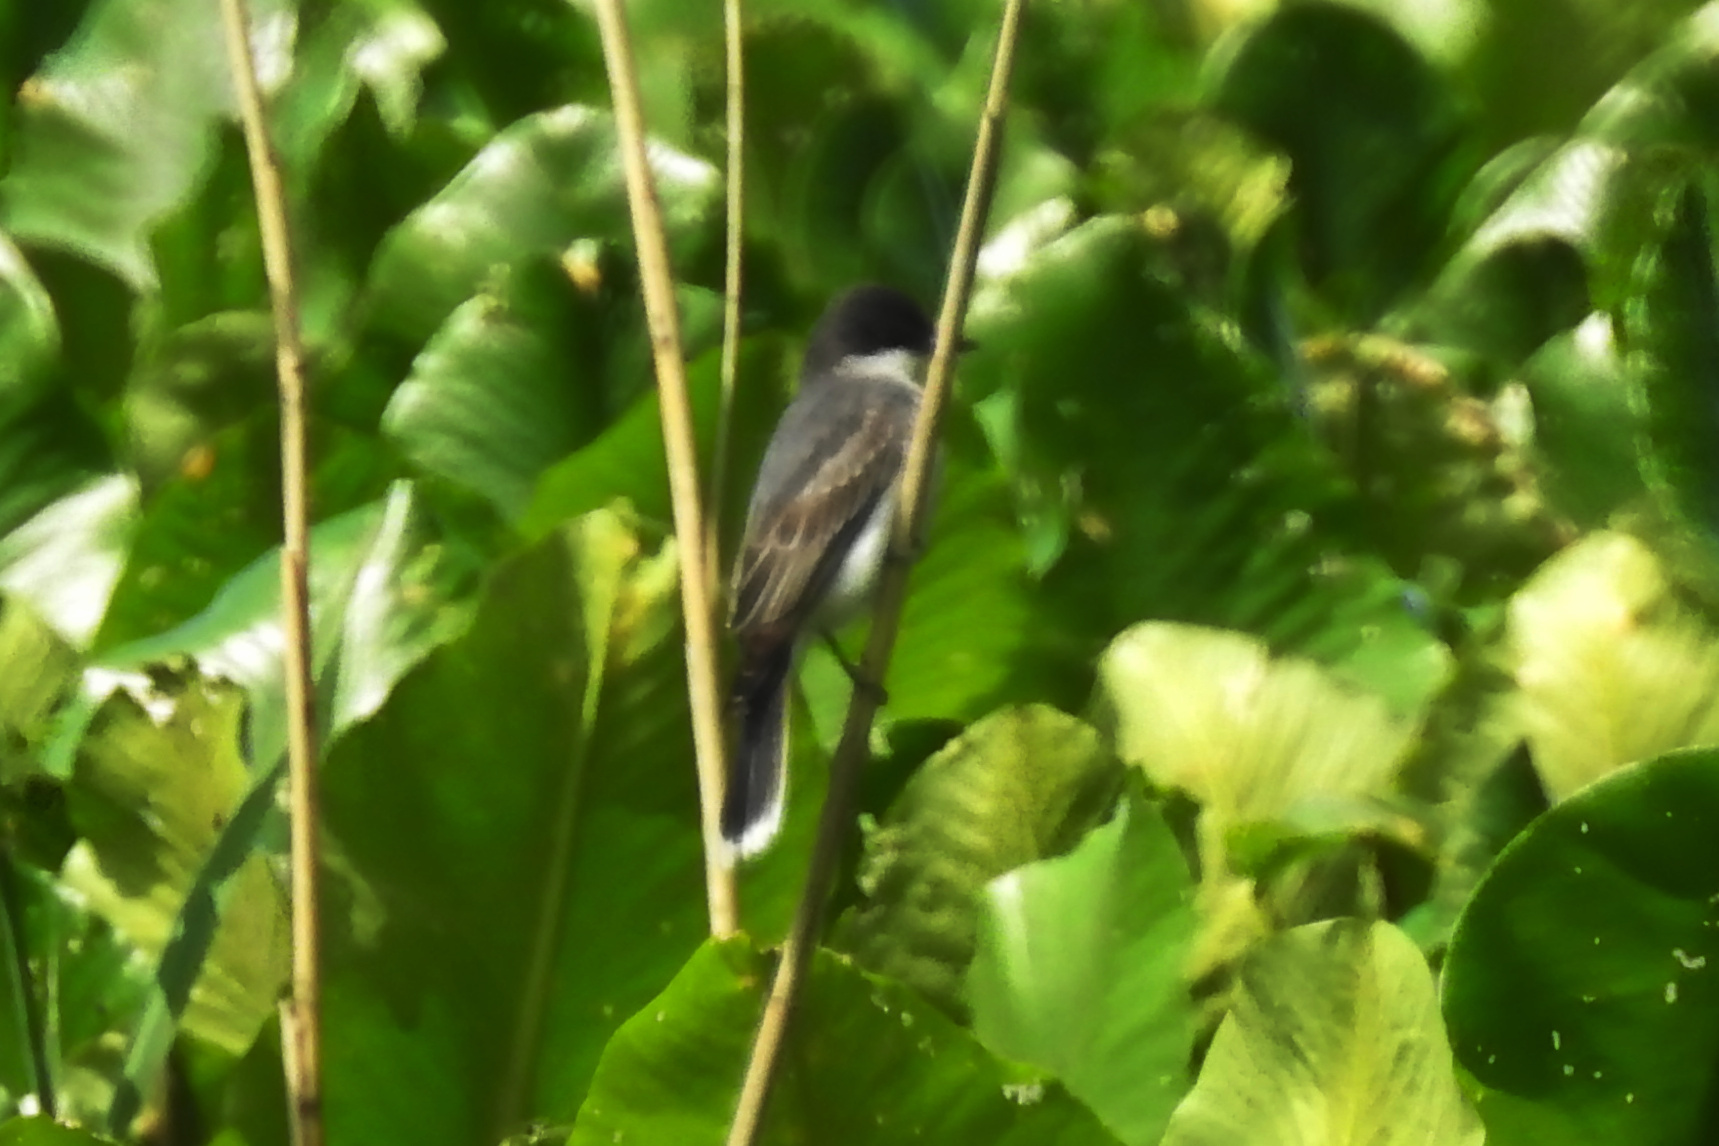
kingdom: Animalia
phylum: Chordata
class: Aves
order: Passeriformes
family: Tyrannidae
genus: Tyrannus
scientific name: Tyrannus tyrannus
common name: Eastern kingbird
